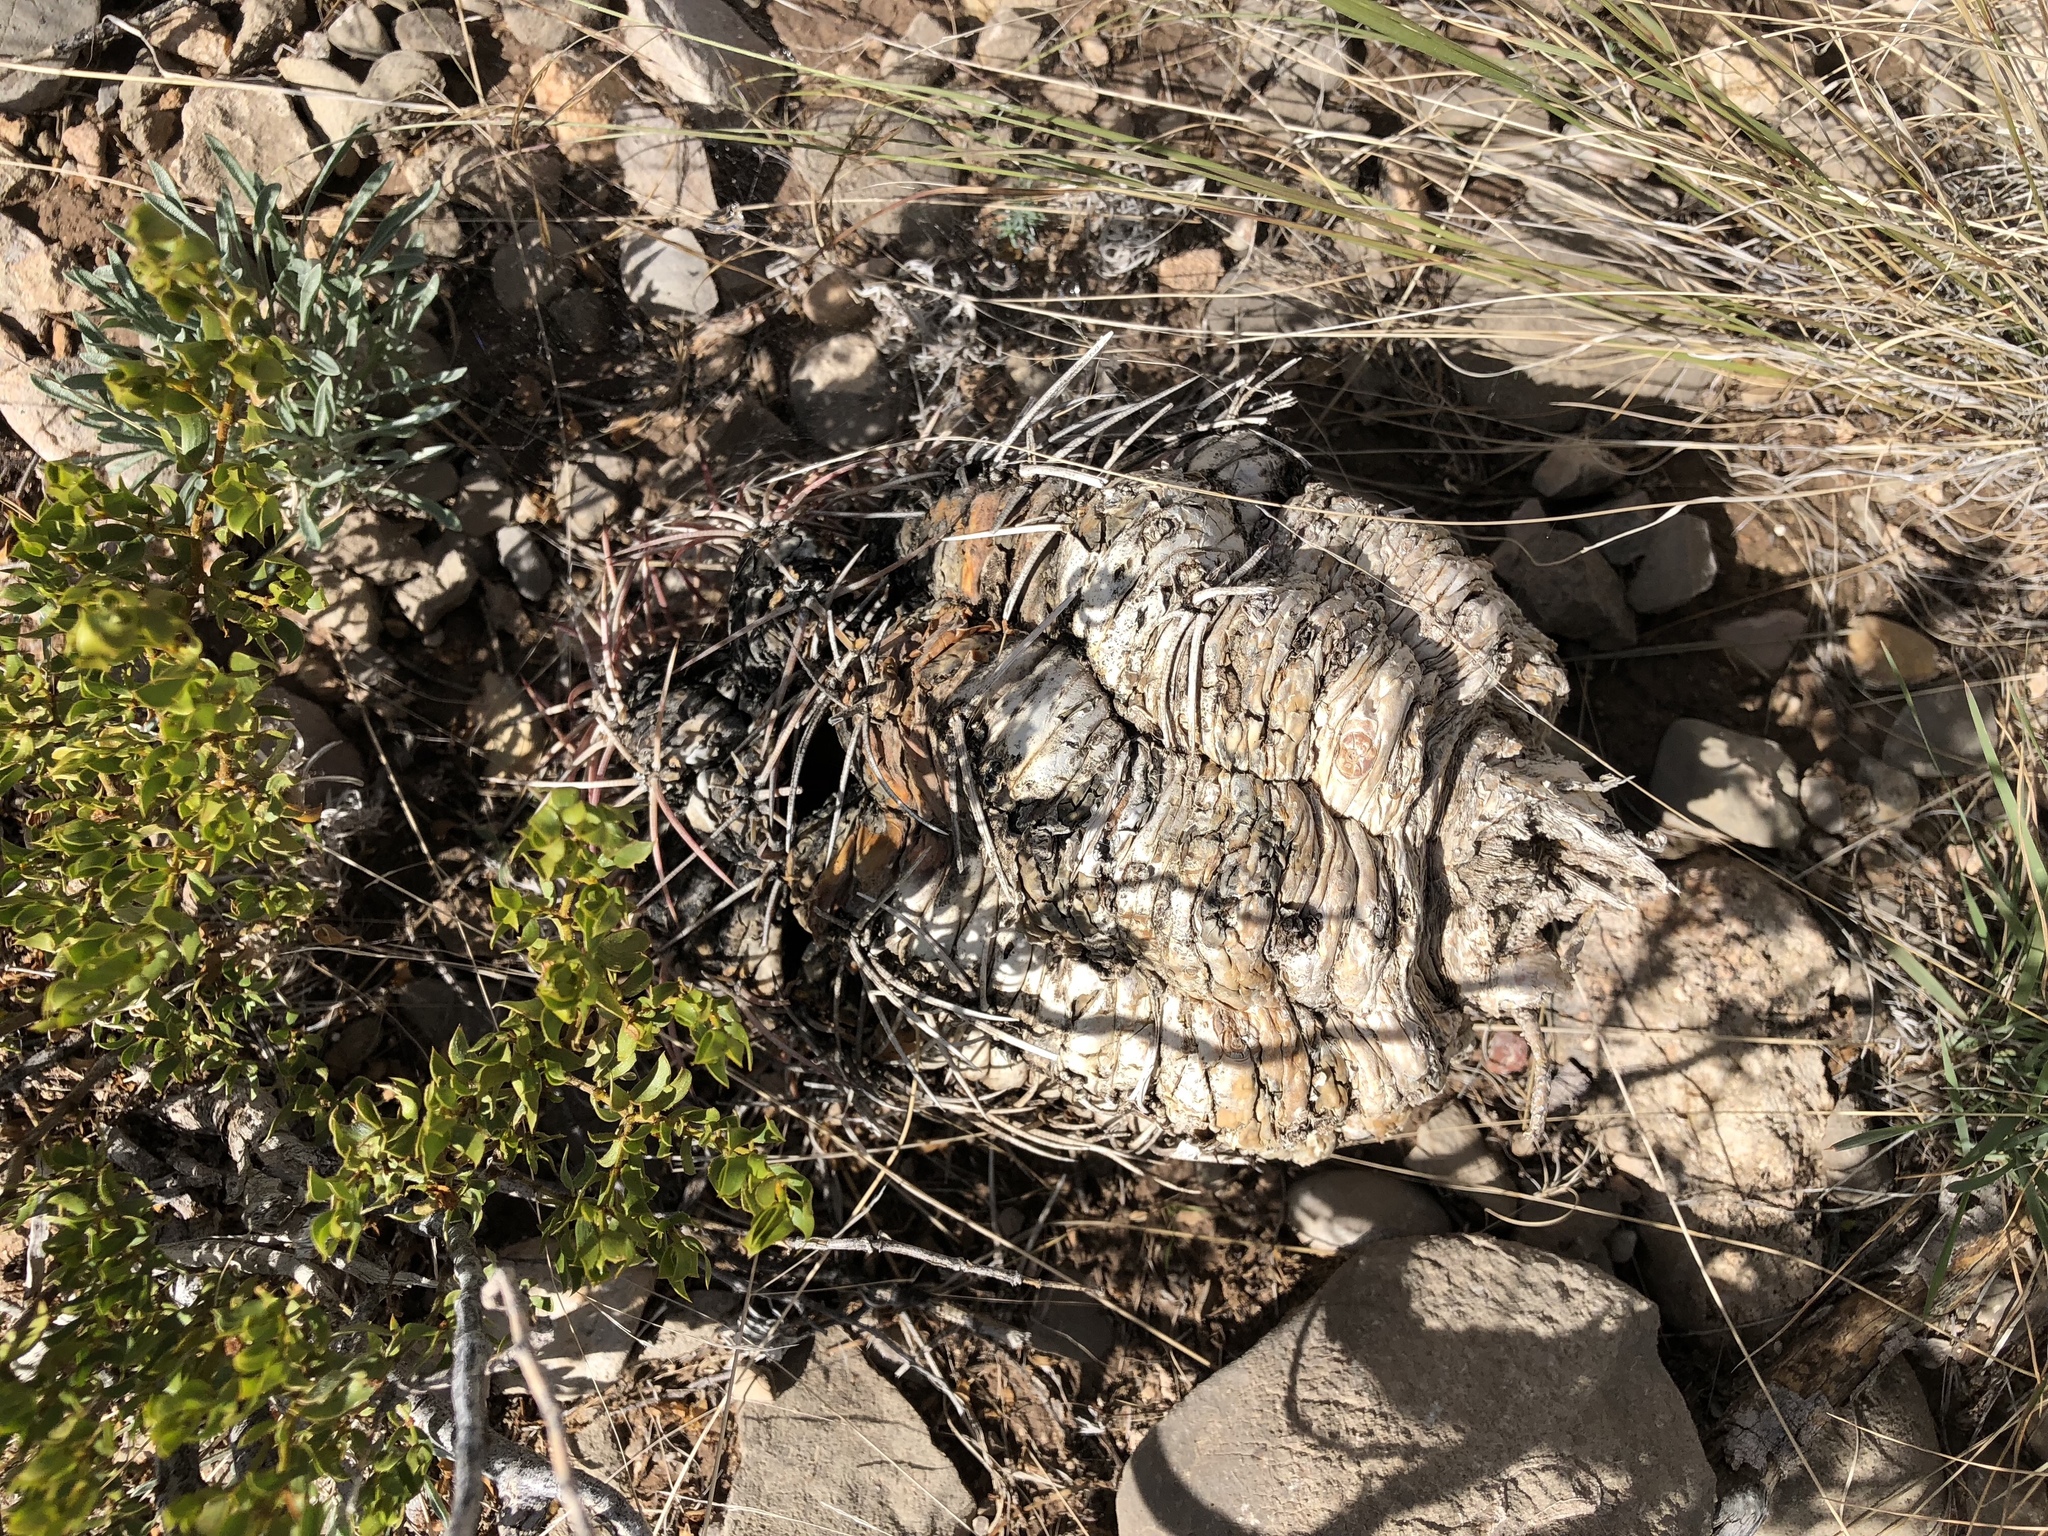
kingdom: Plantae
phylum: Tracheophyta
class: Magnoliopsida
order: Caryophyllales
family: Cactaceae
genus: Echinocactus
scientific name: Echinocactus horizonthalonius
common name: Devilshead
